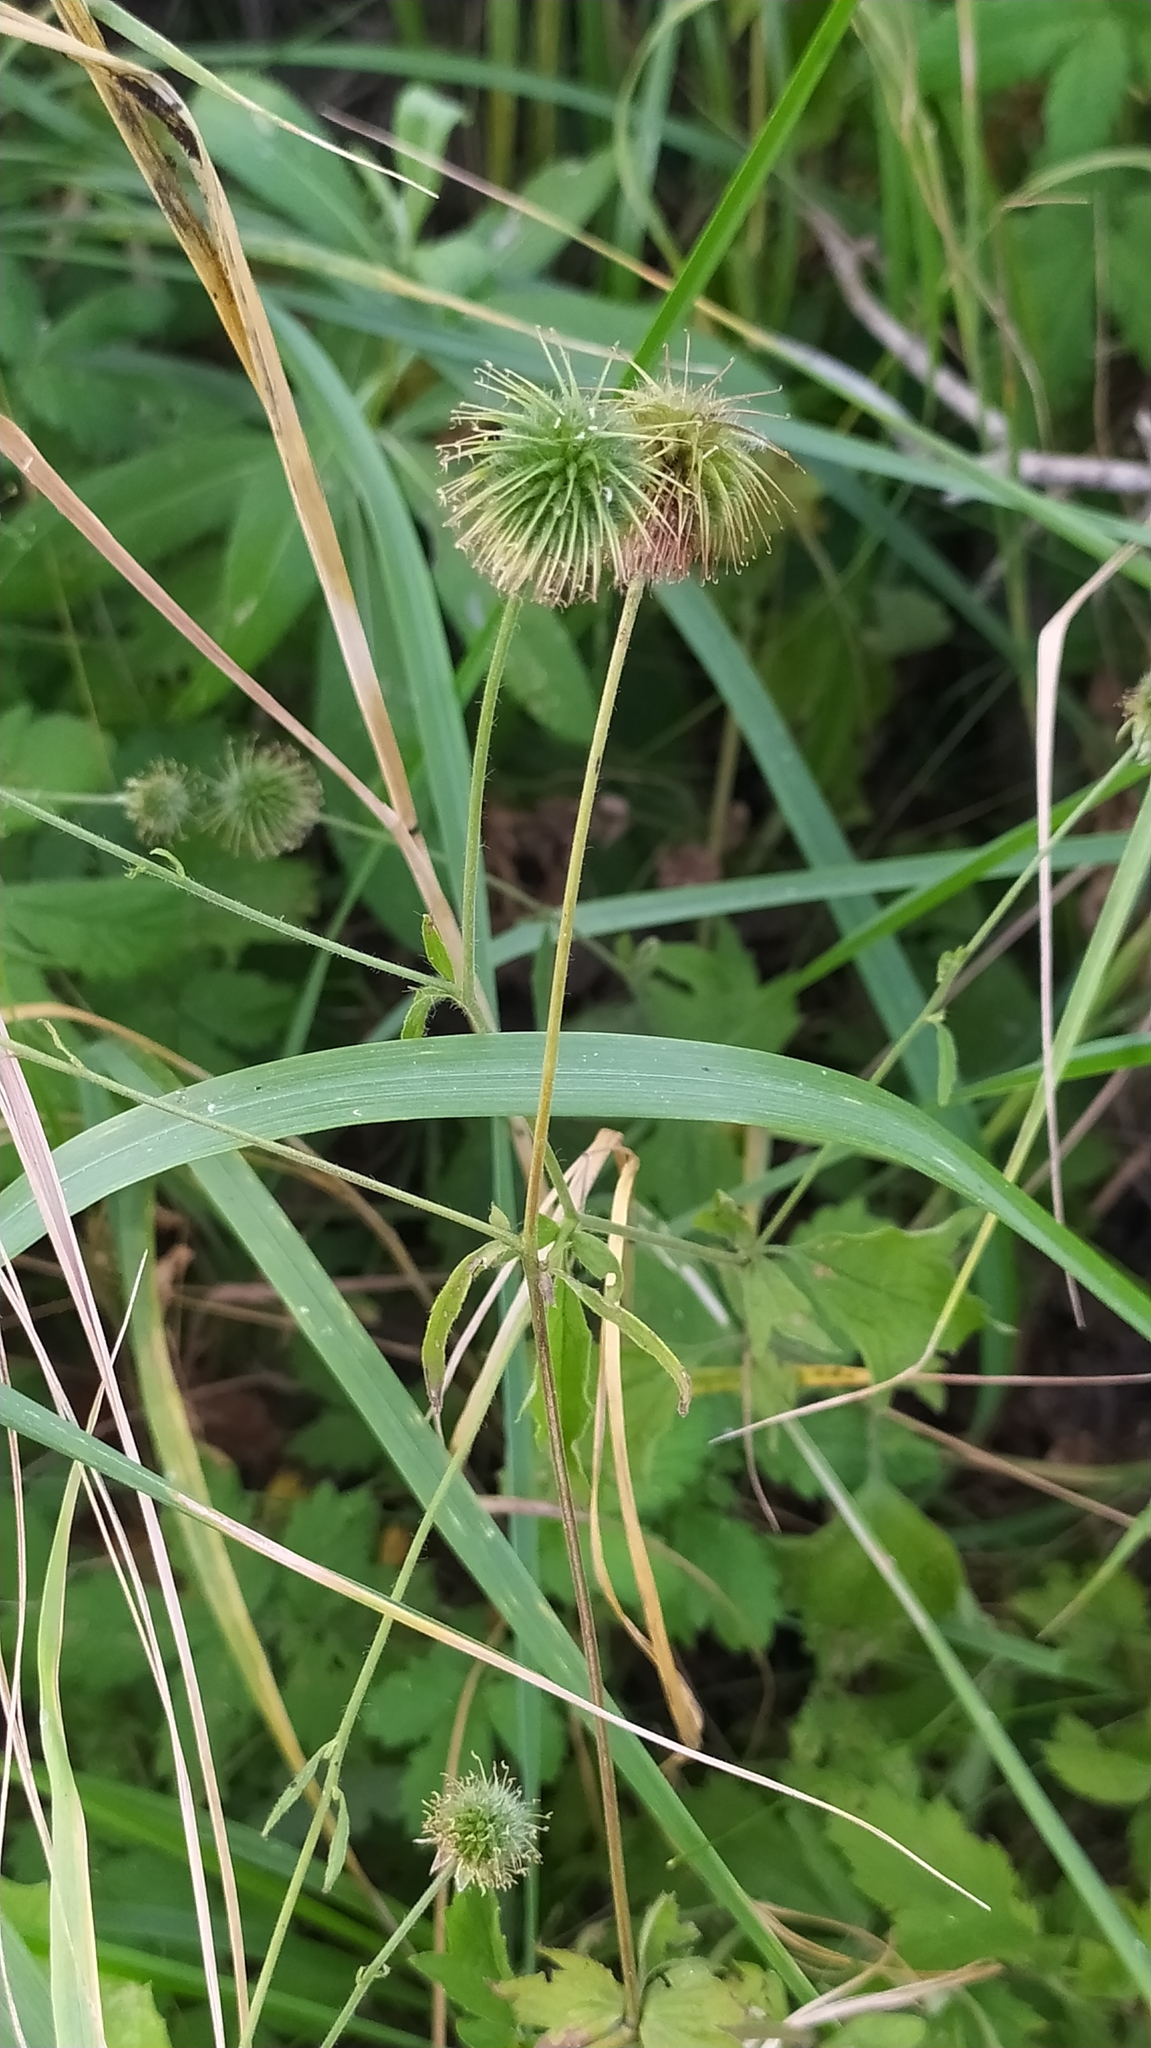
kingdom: Plantae
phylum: Tracheophyta
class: Magnoliopsida
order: Rosales
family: Rosaceae
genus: Geum
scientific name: Geum urbanum
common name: Wood avens
